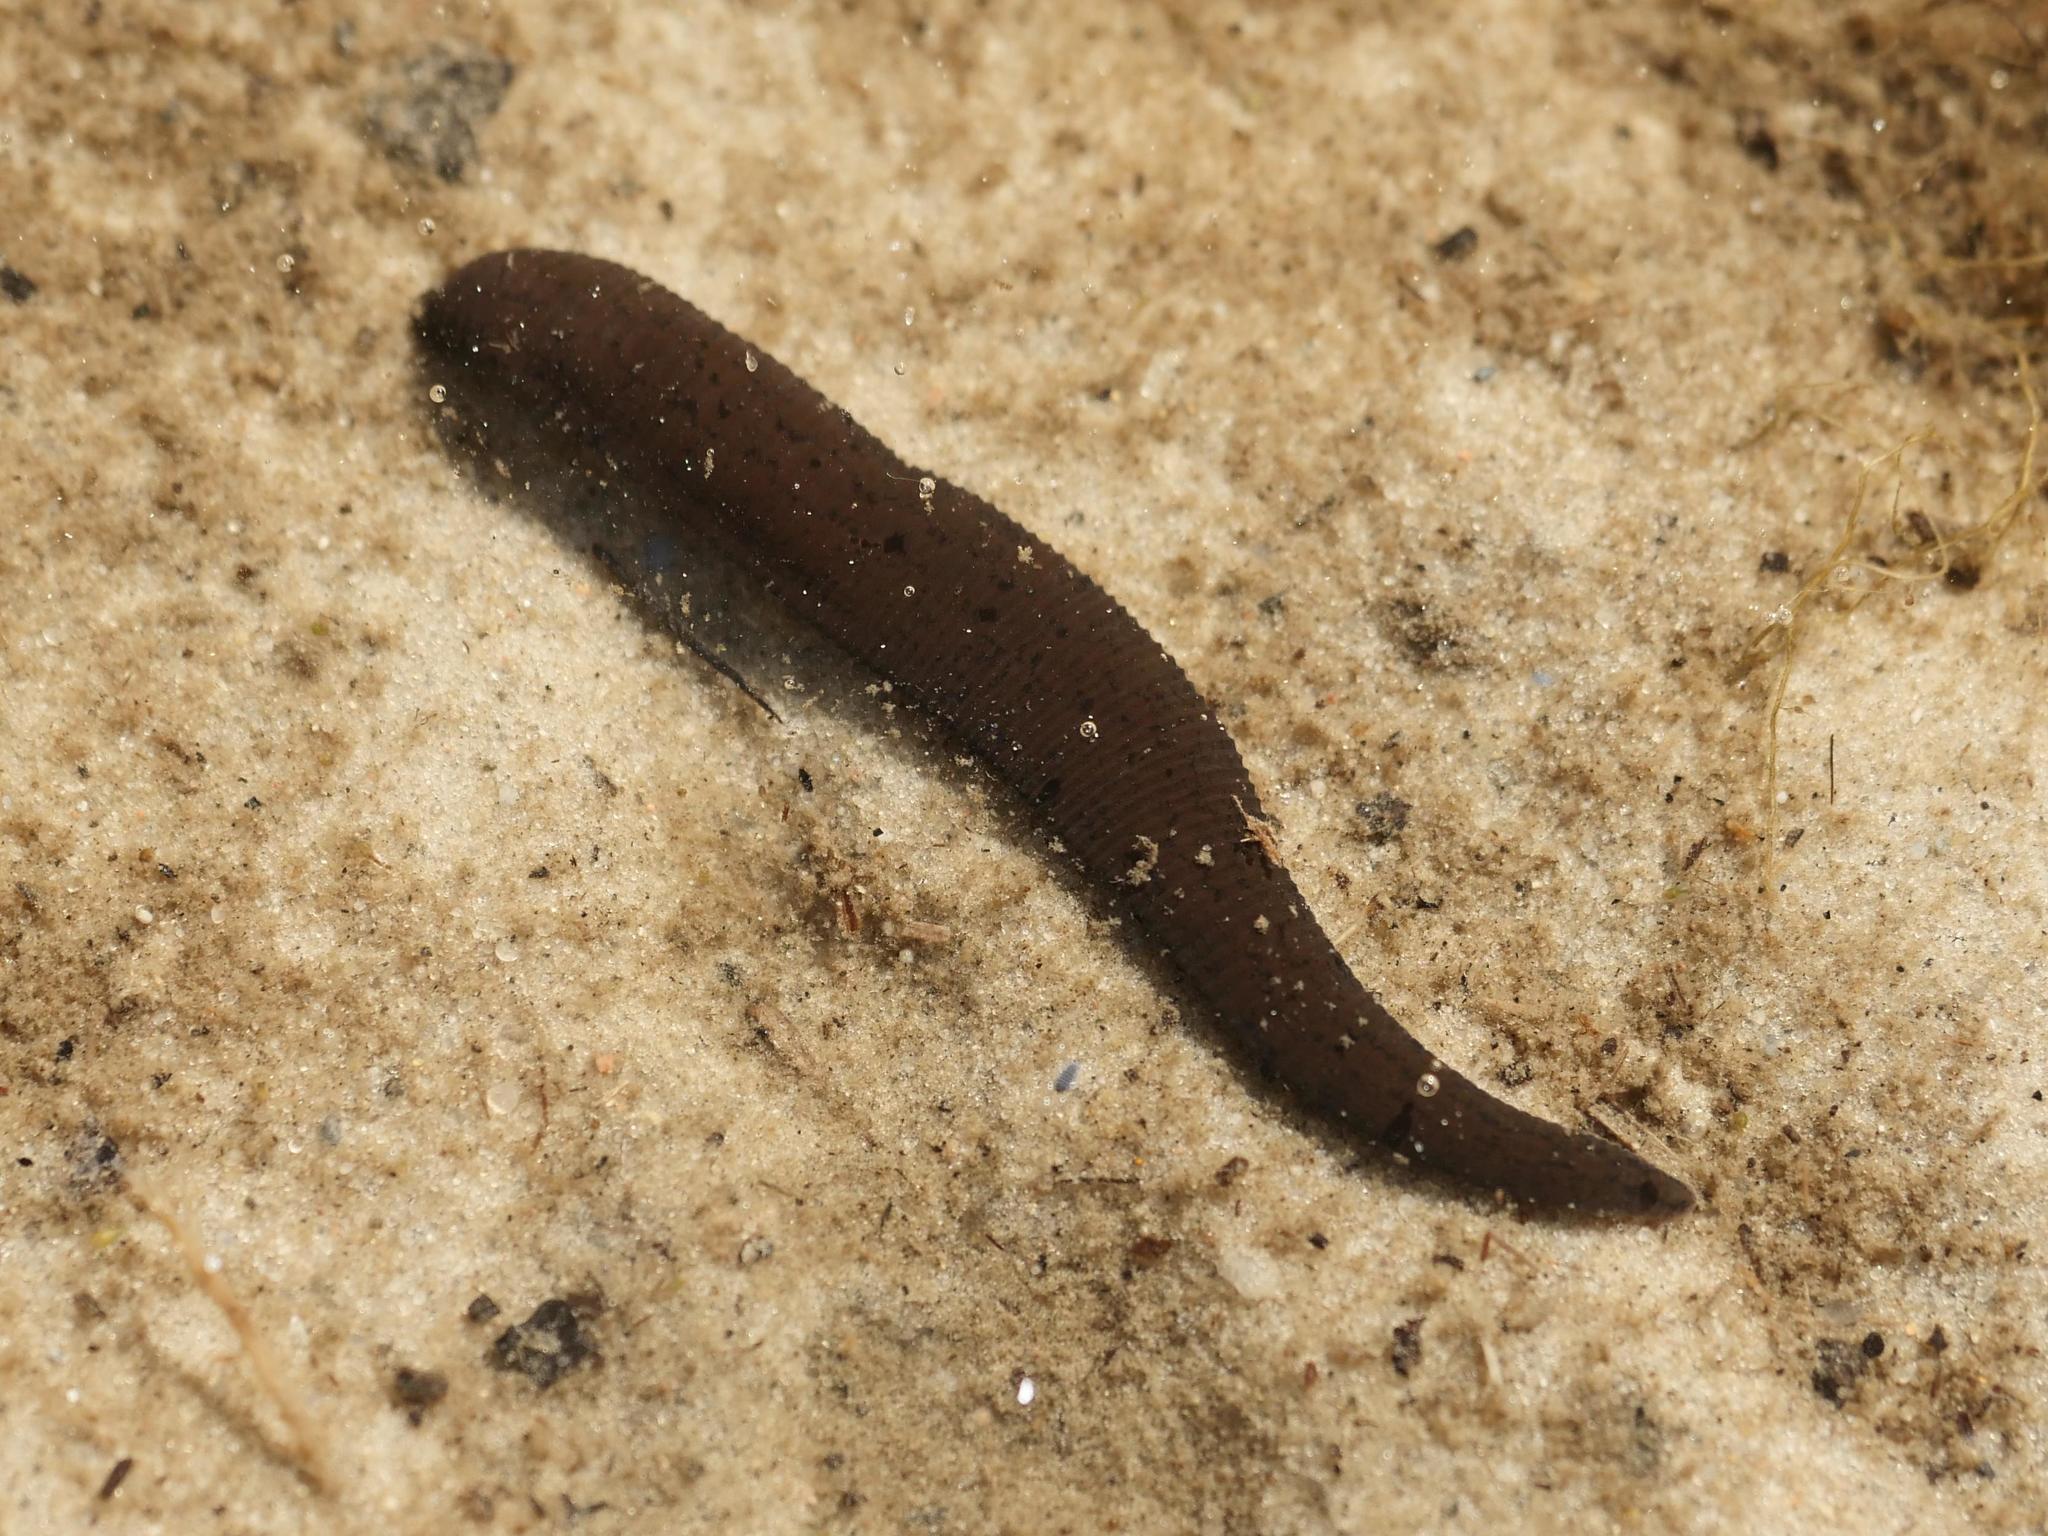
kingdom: Animalia
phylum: Annelida
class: Clitellata
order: Arhynchobdellida
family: Haemopidae
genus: Haemopis
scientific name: Haemopis sanguisuga
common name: Horse leech
